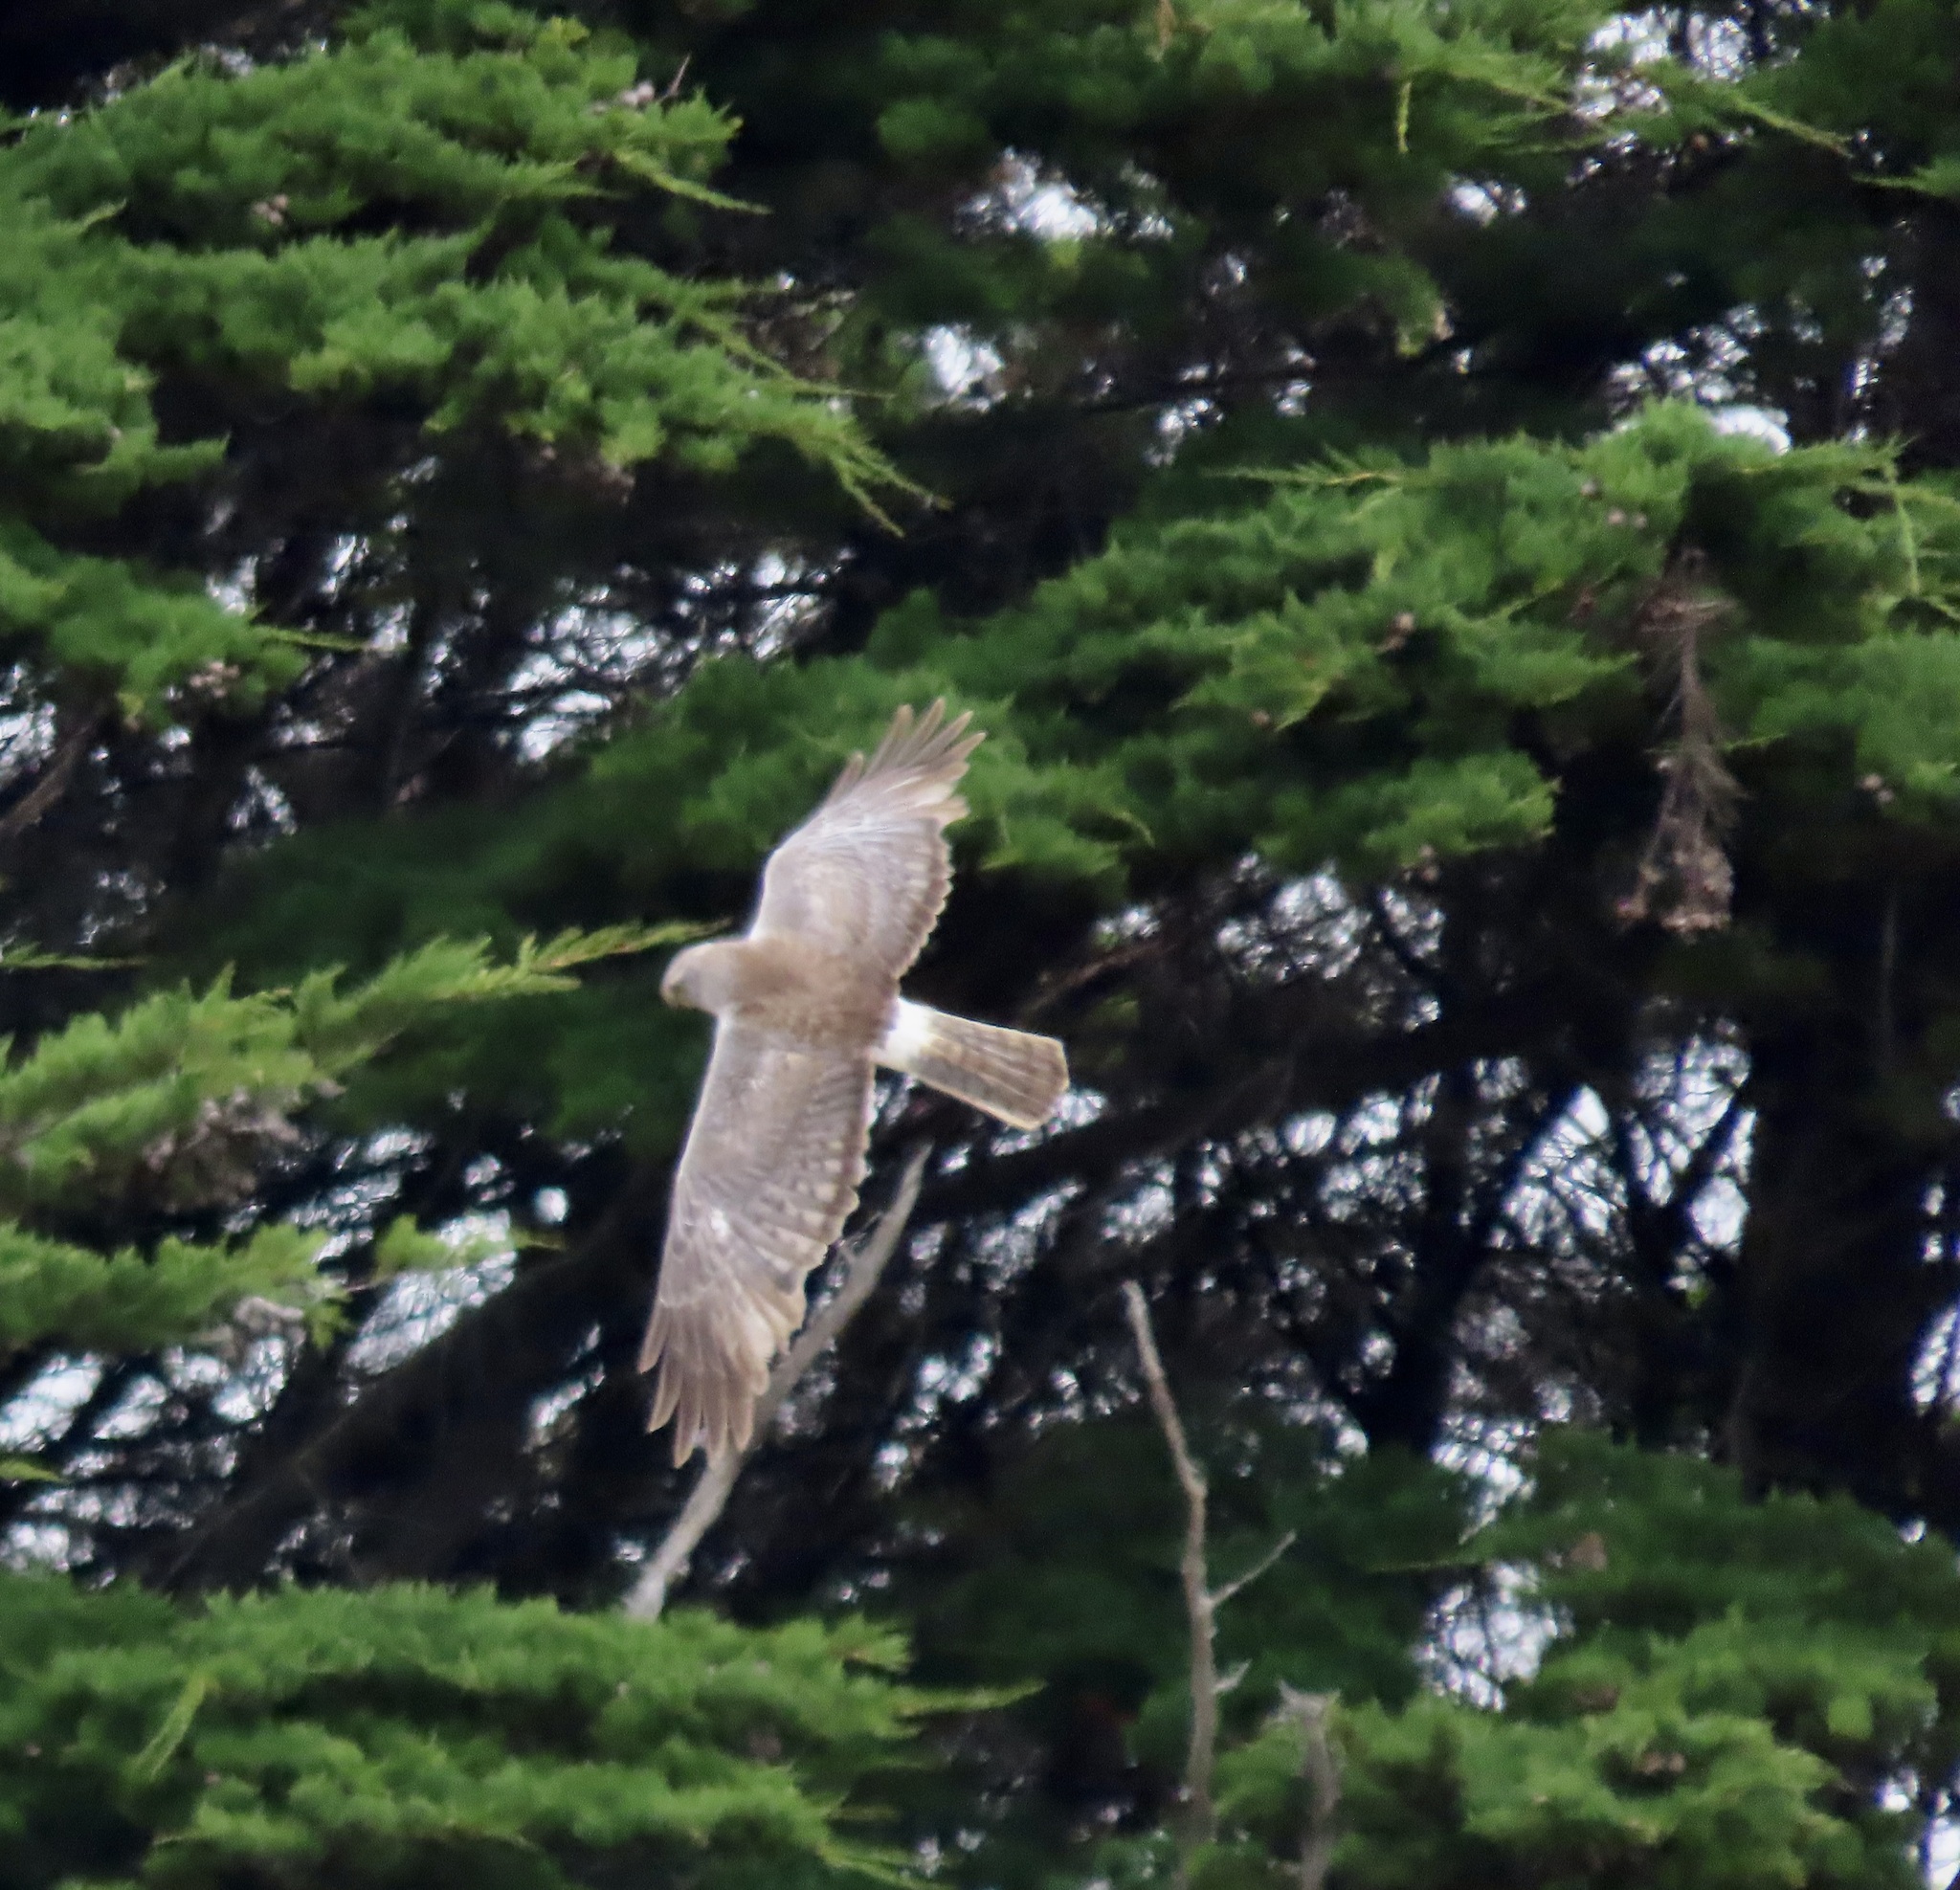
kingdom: Animalia
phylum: Chordata
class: Aves
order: Accipitriformes
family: Accipitridae
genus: Circus
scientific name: Circus cyaneus
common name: Hen harrier
